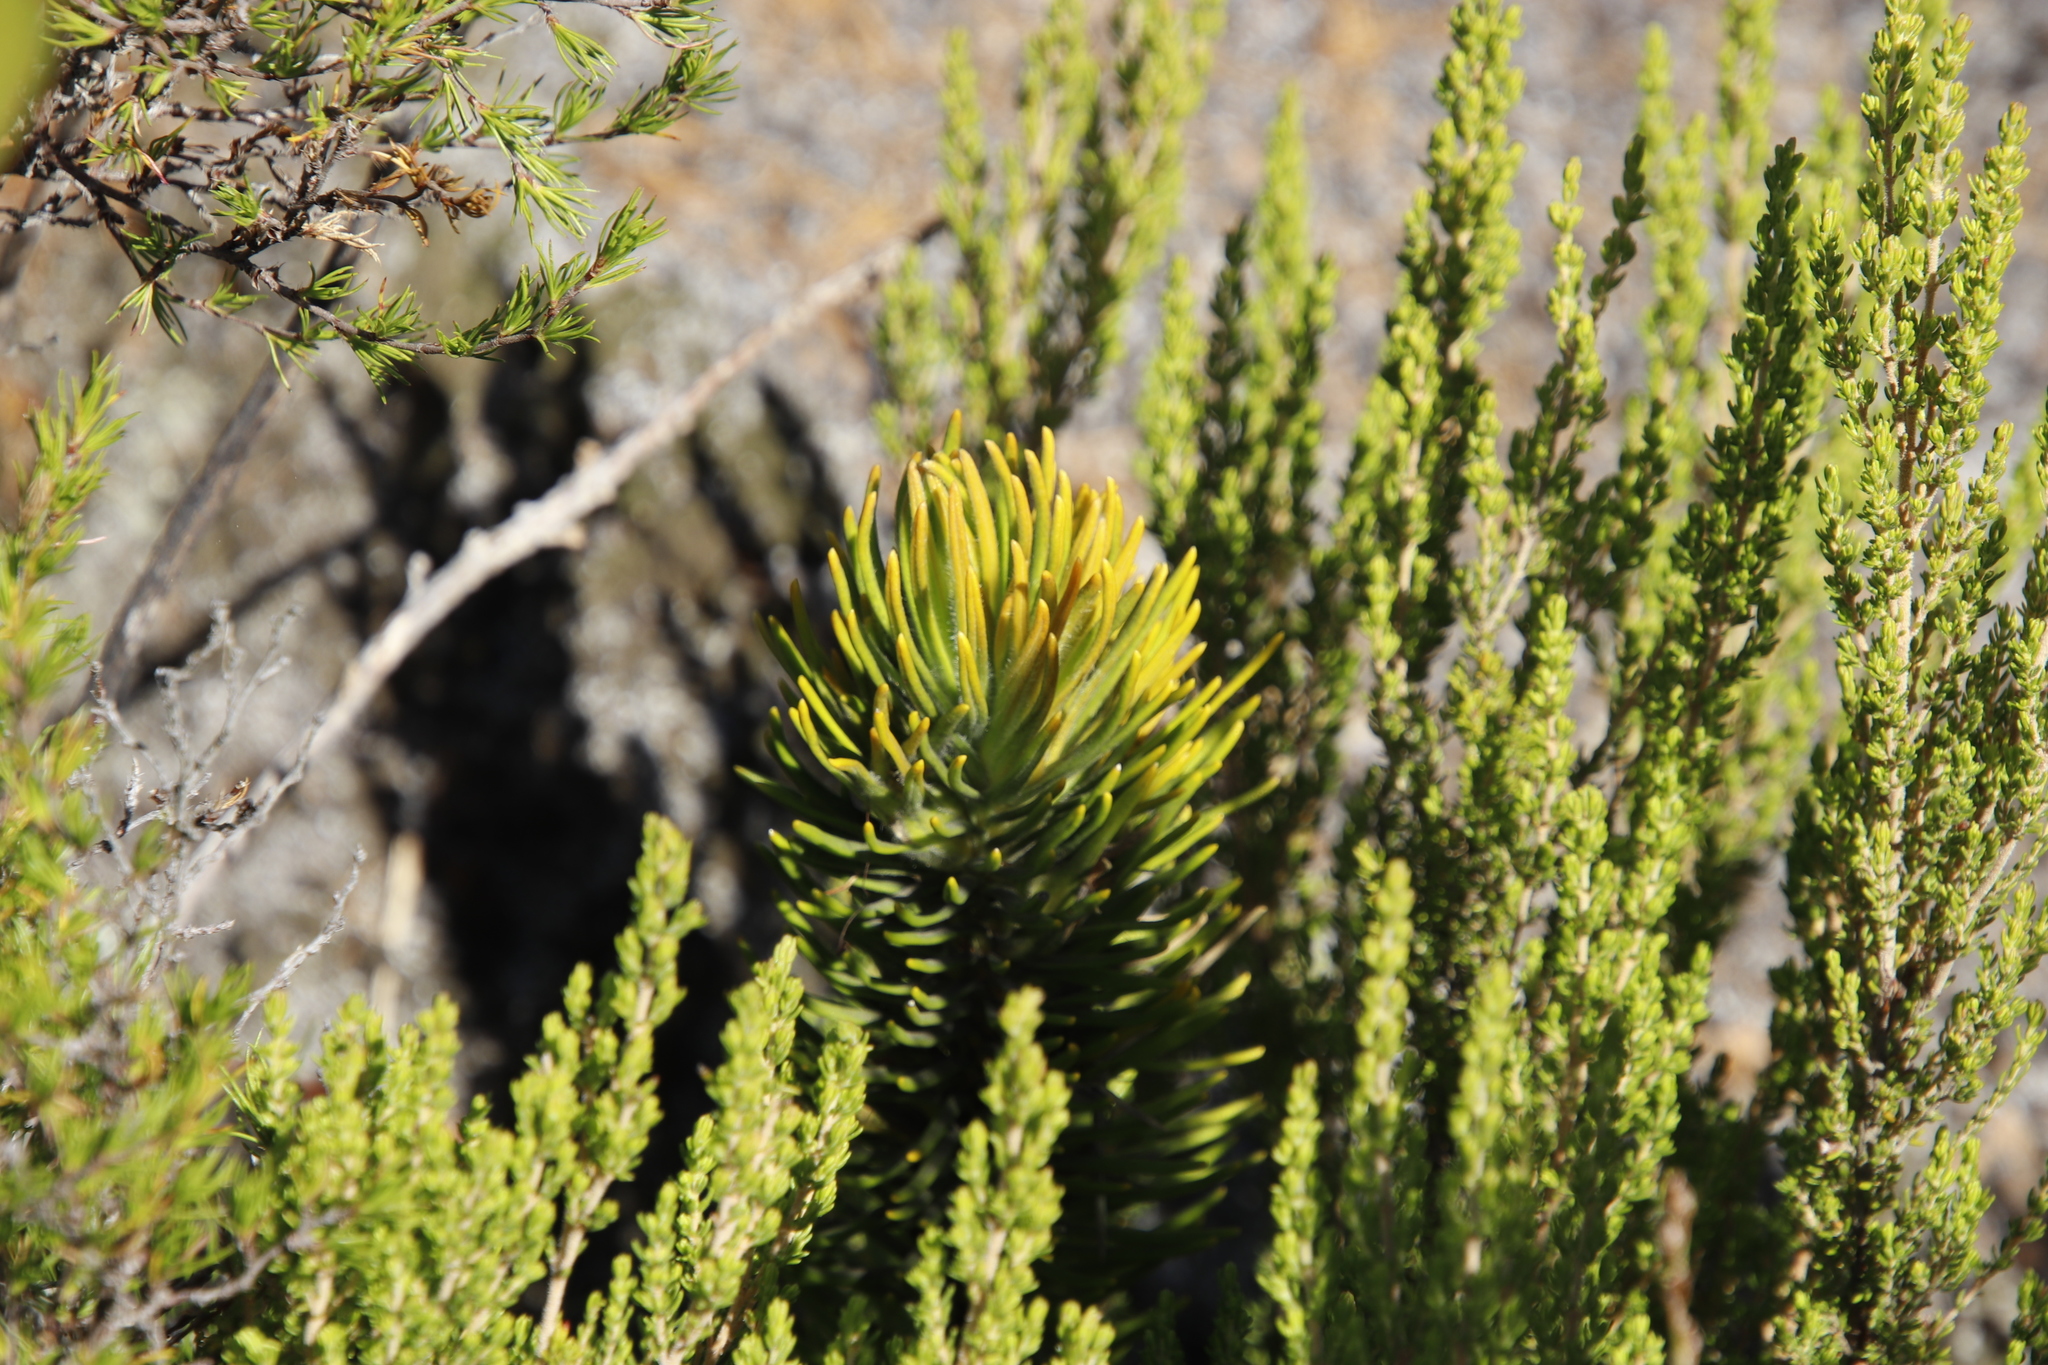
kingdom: Plantae
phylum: Tracheophyta
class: Magnoliopsida
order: Lamiales
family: Stilbaceae
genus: Retzia
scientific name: Retzia capensis
